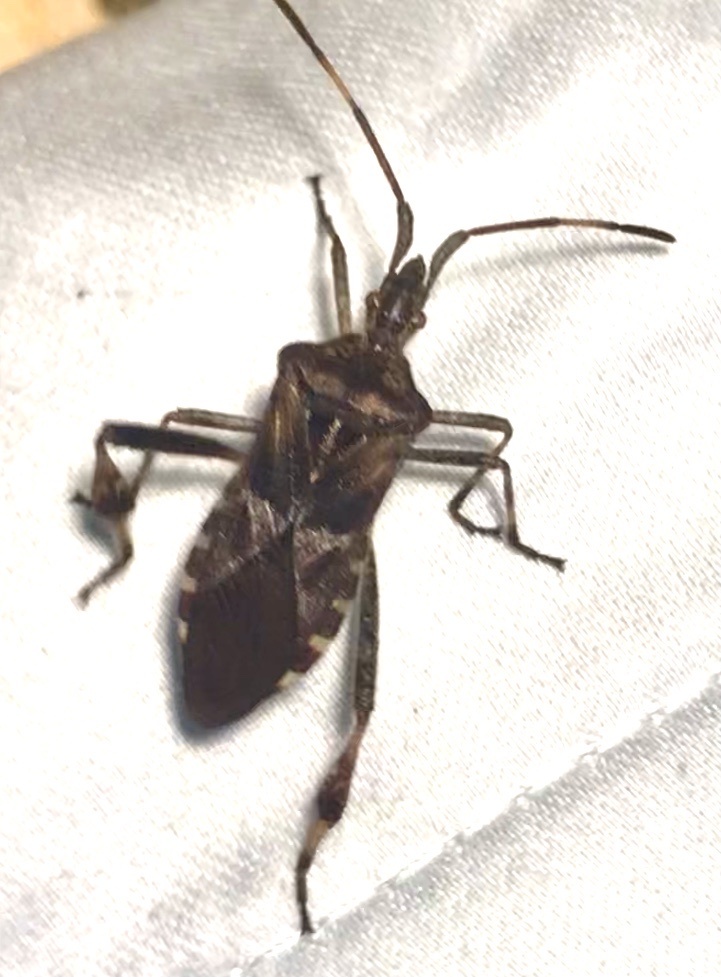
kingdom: Animalia
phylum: Arthropoda
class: Insecta
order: Hemiptera
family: Coreidae
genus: Leptoglossus
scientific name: Leptoglossus occidentalis
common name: Western conifer-seed bug
